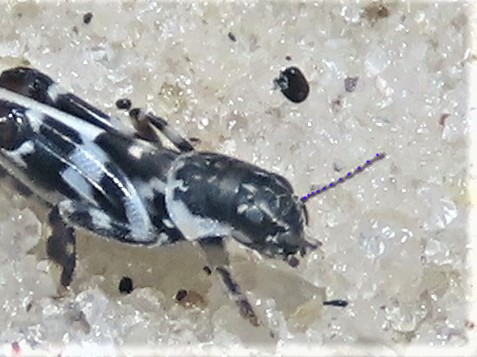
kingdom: Animalia
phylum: Arthropoda
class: Insecta
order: Orthoptera
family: Tridactylidae
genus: Ellipes
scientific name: Ellipes gurneyi
